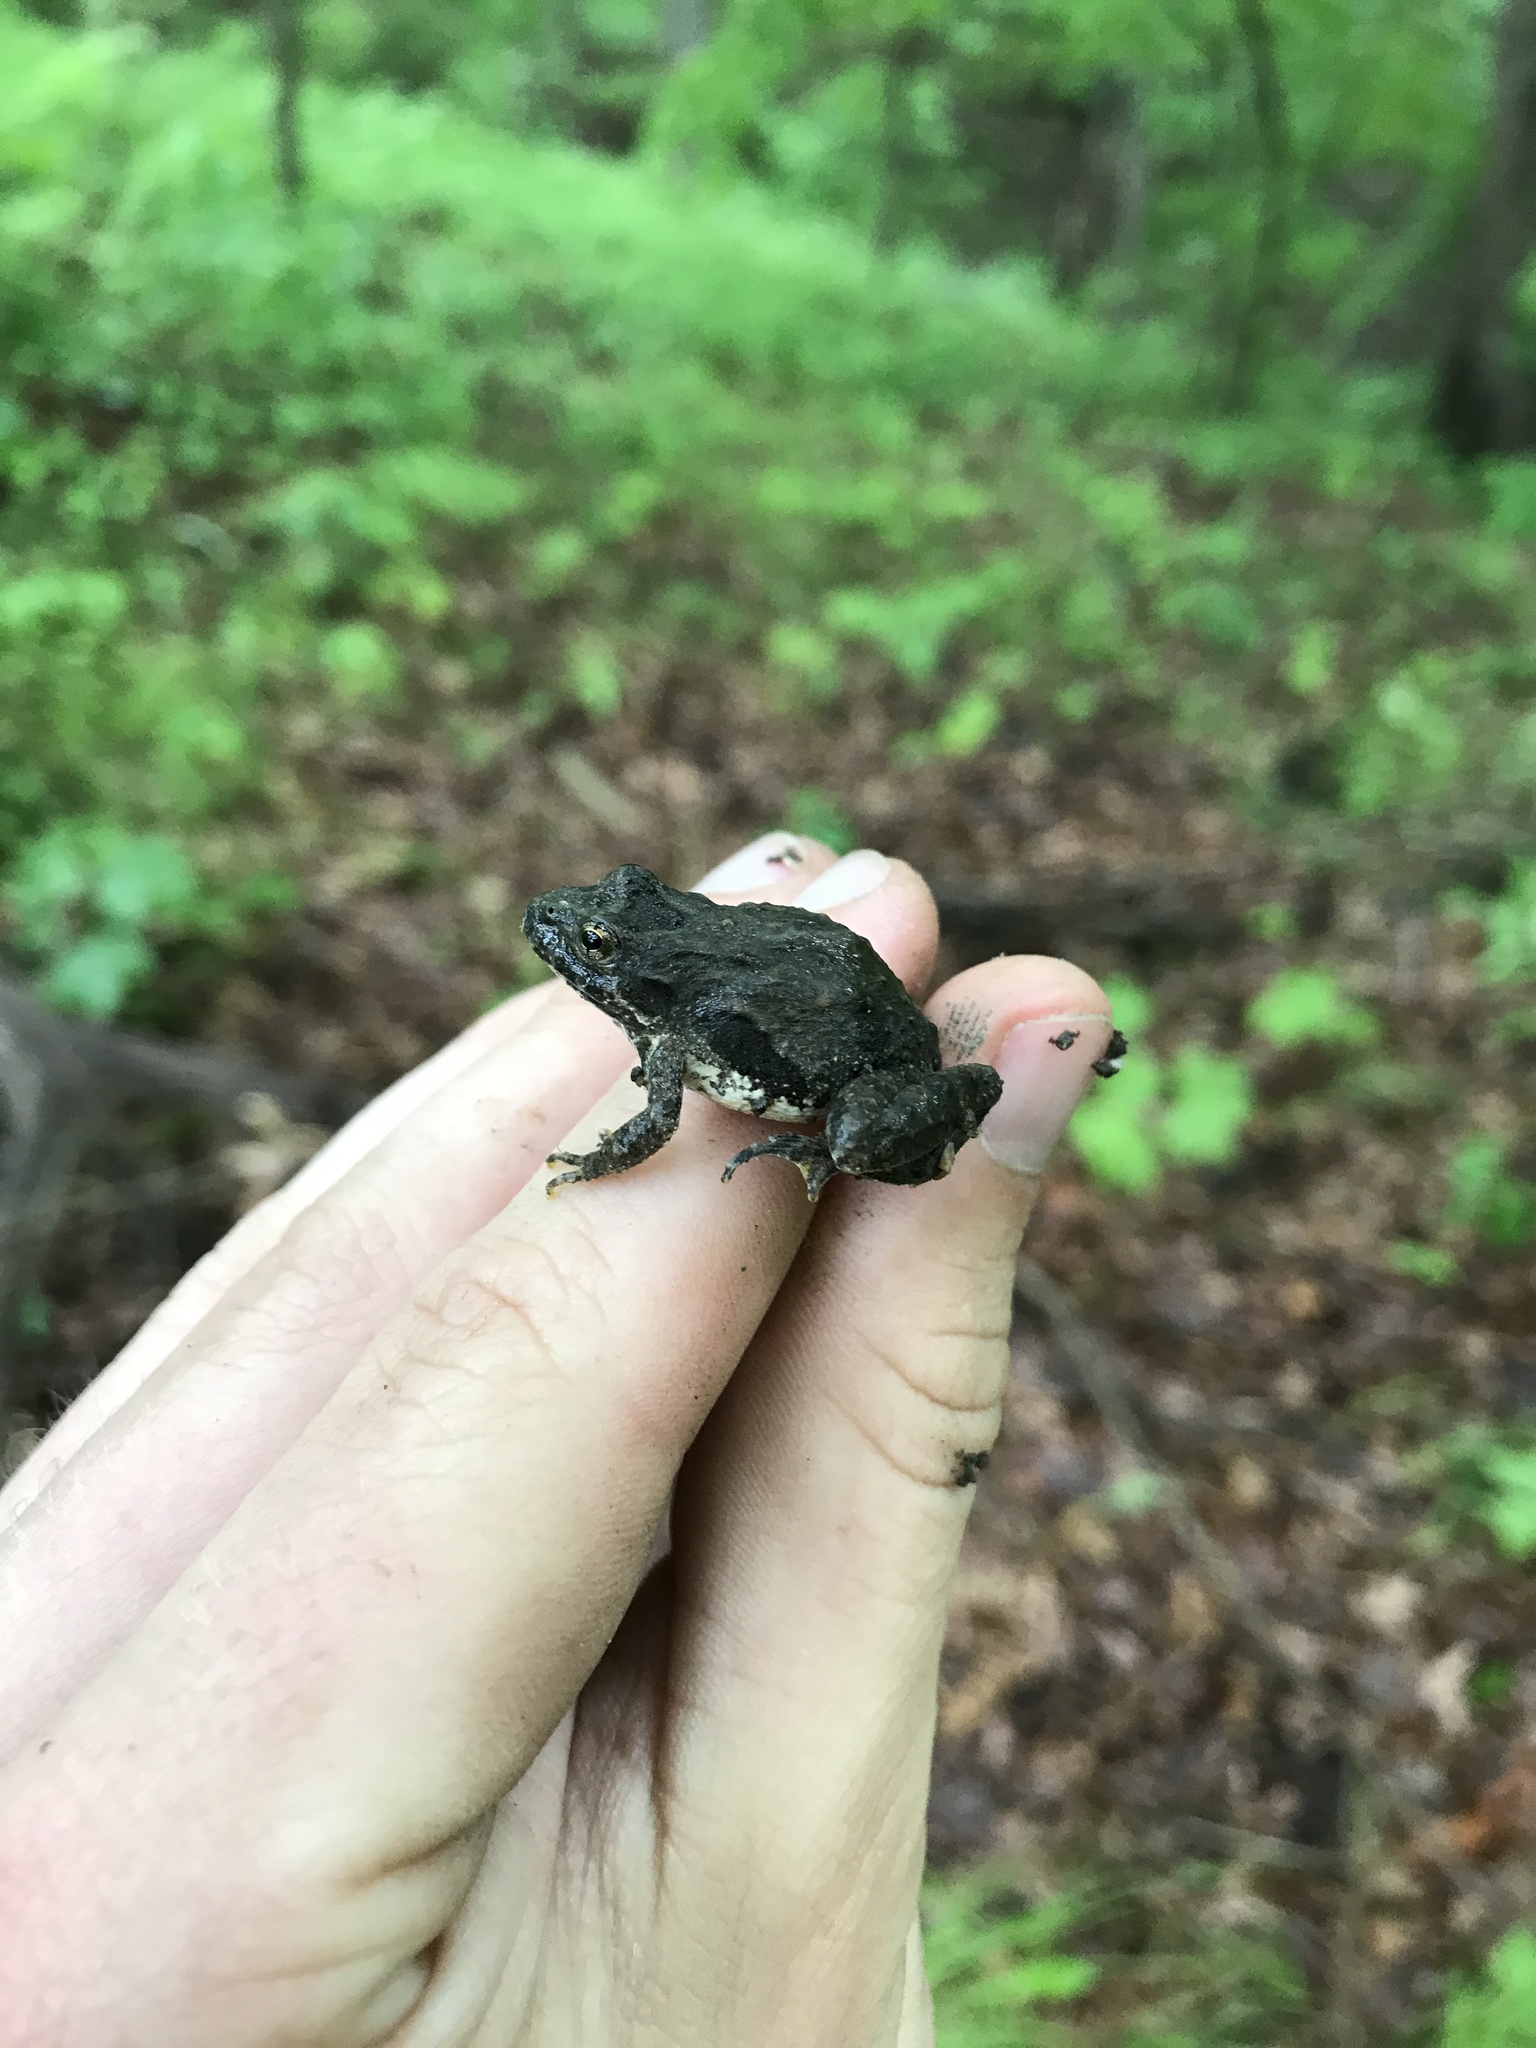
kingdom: Animalia
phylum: Chordata
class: Amphibia
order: Anura
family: Hylidae
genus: Acris
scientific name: Acris blanchardi
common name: Blanchard's cricket frog
